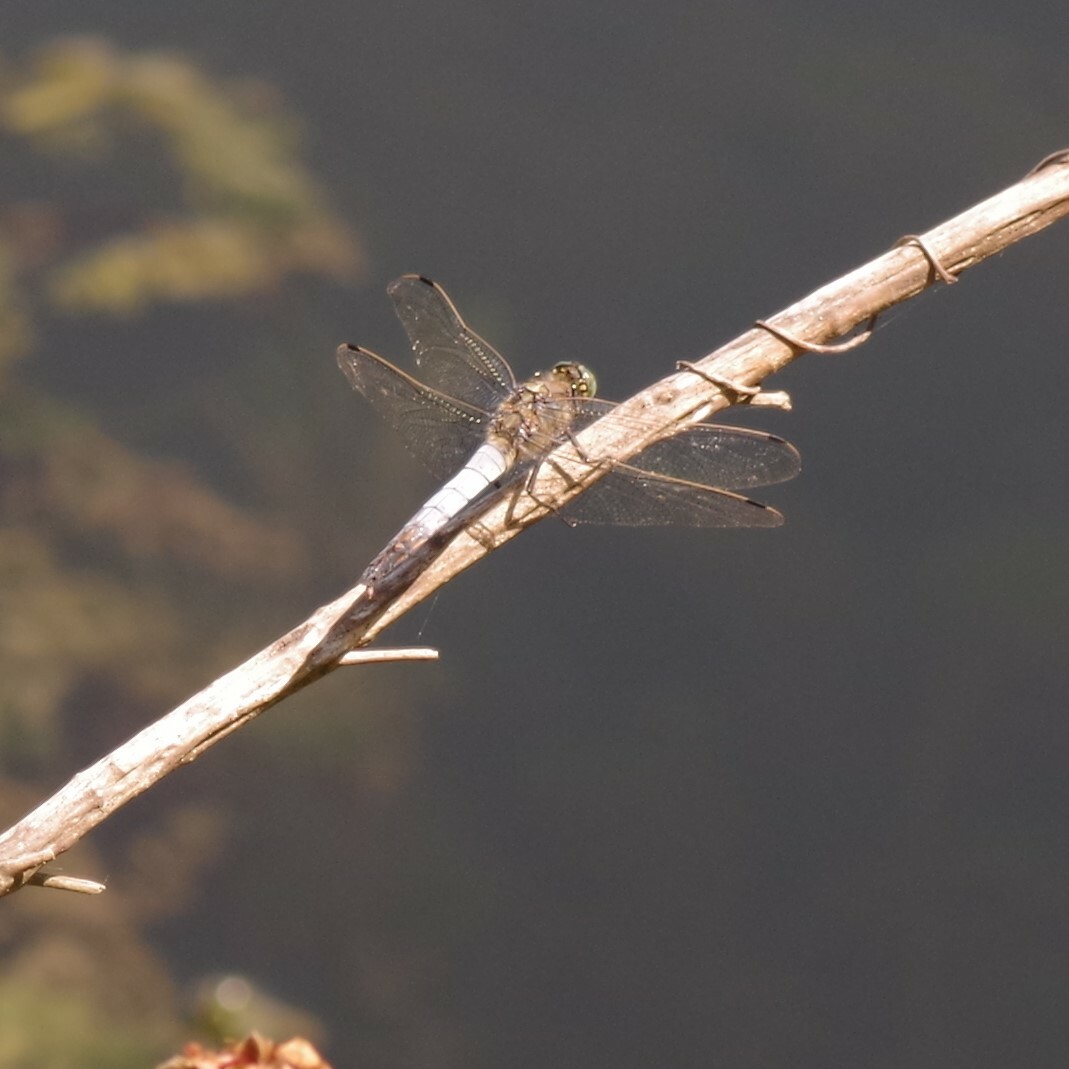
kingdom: Animalia
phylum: Arthropoda
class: Insecta
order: Odonata
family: Libellulidae
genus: Orthetrum
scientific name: Orthetrum cancellatum
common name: Black-tailed skimmer
